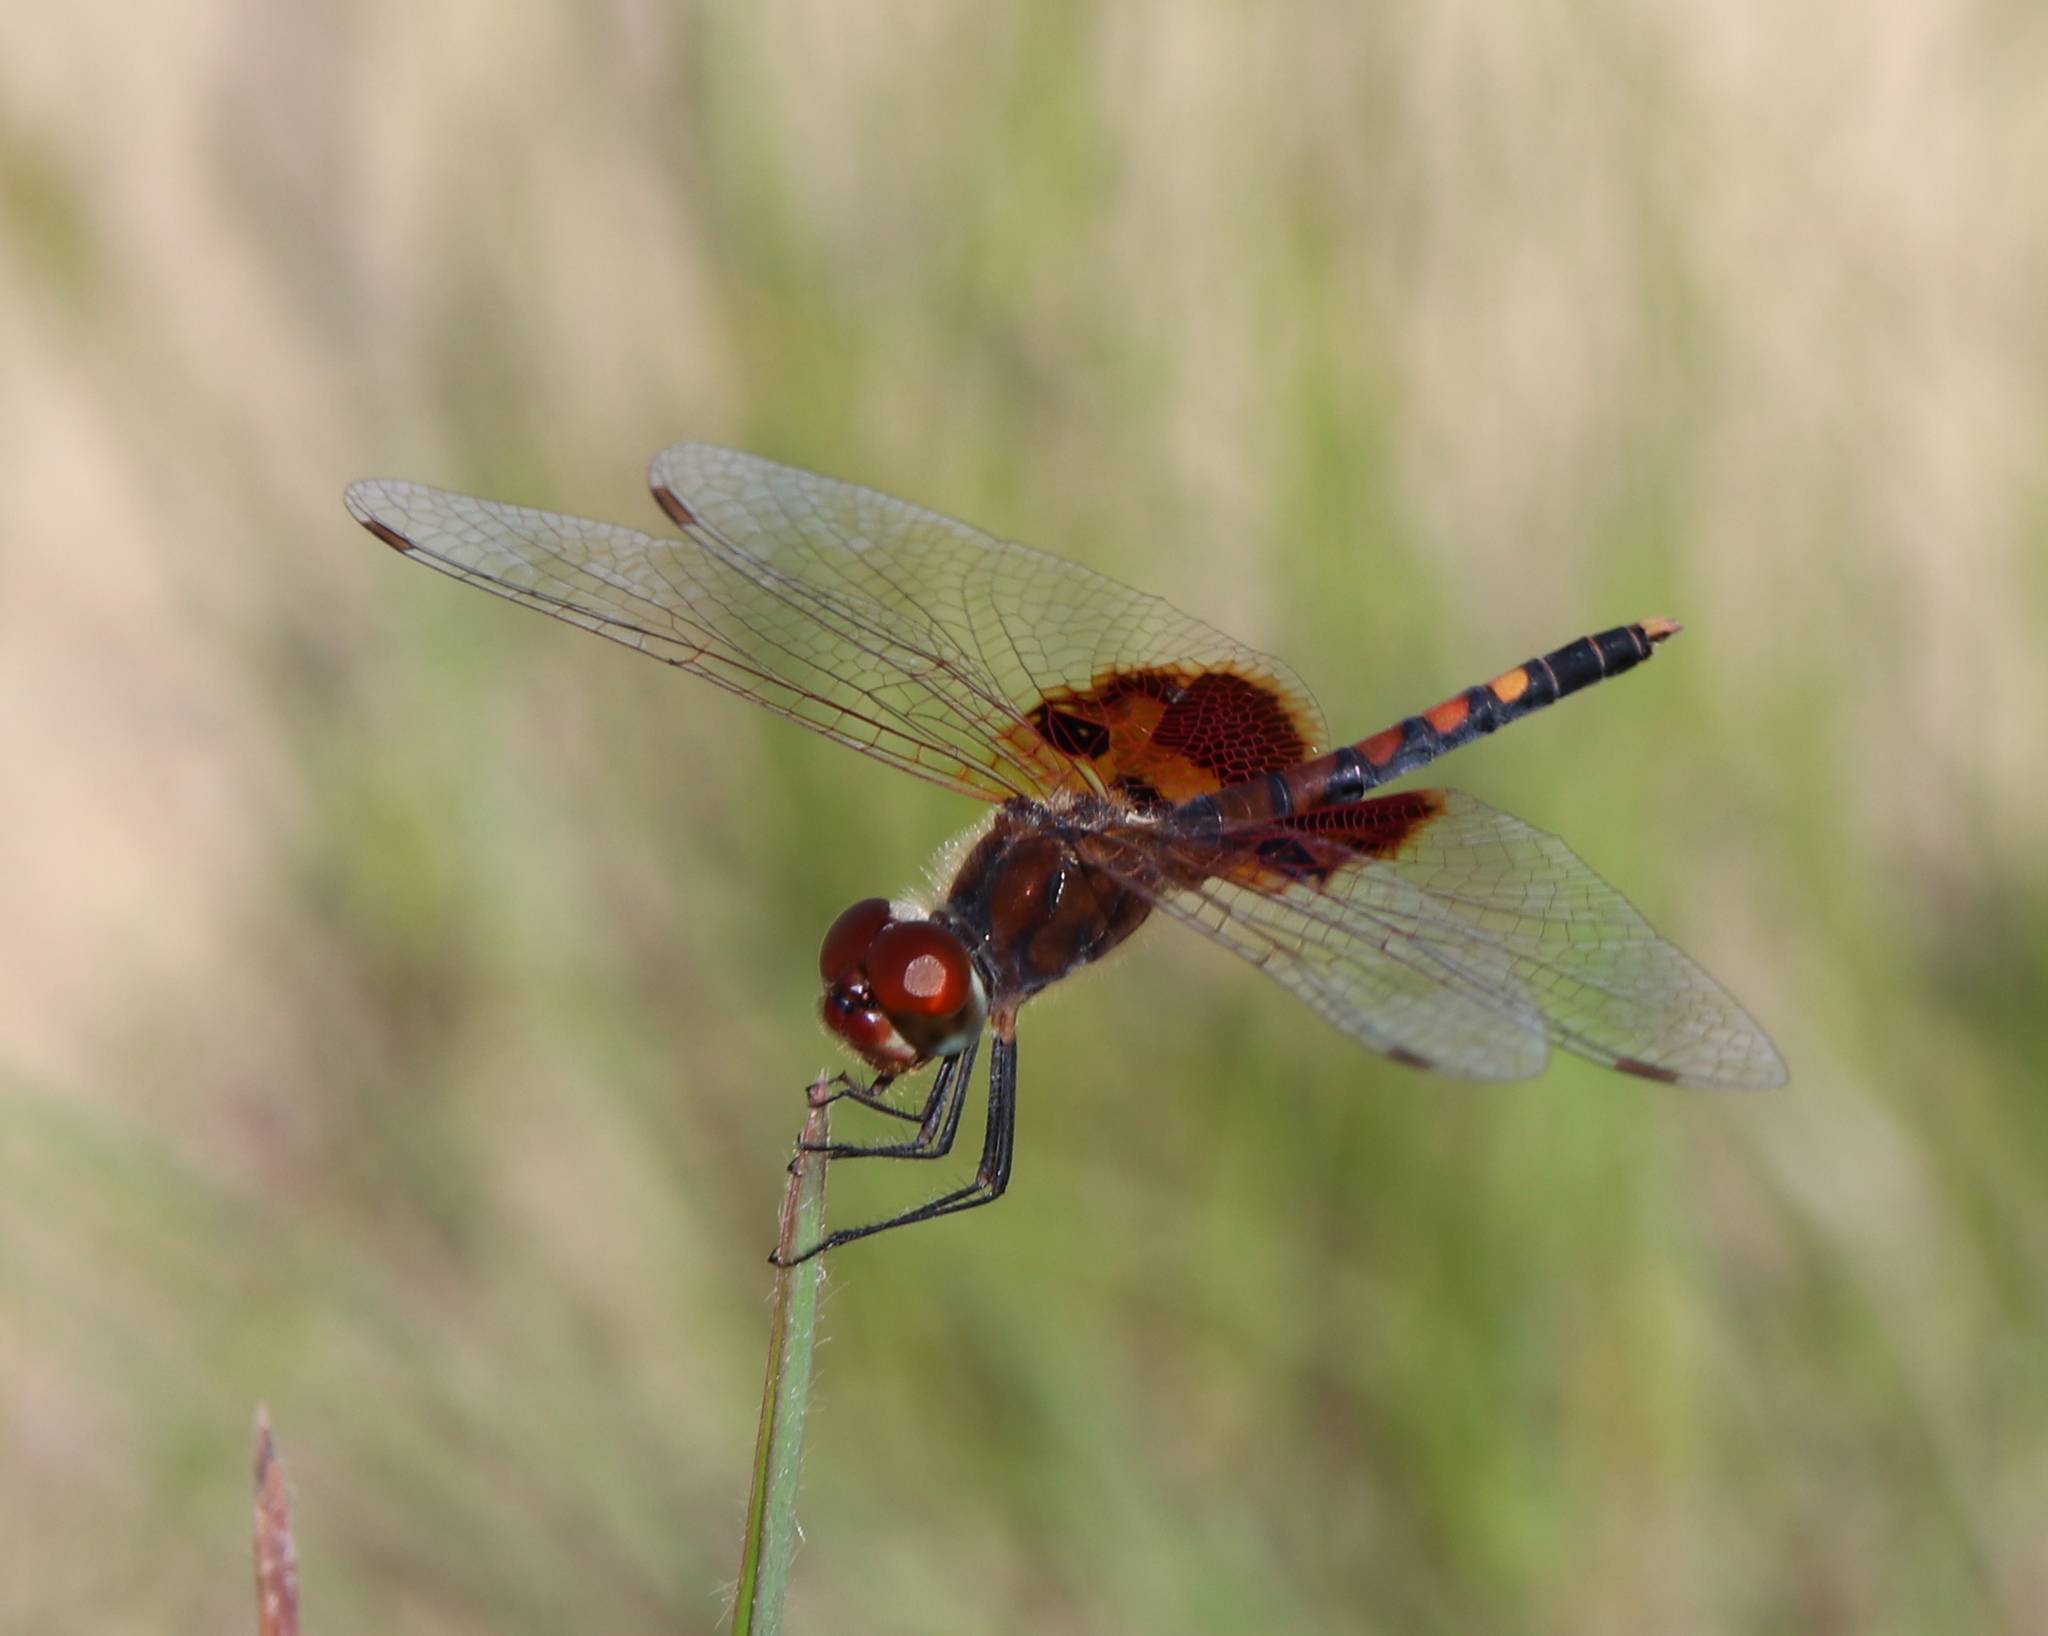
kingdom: Animalia
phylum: Arthropoda
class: Insecta
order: Odonata
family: Libellulidae
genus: Celithemis
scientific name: Celithemis amanda
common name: Amanda's pennant
